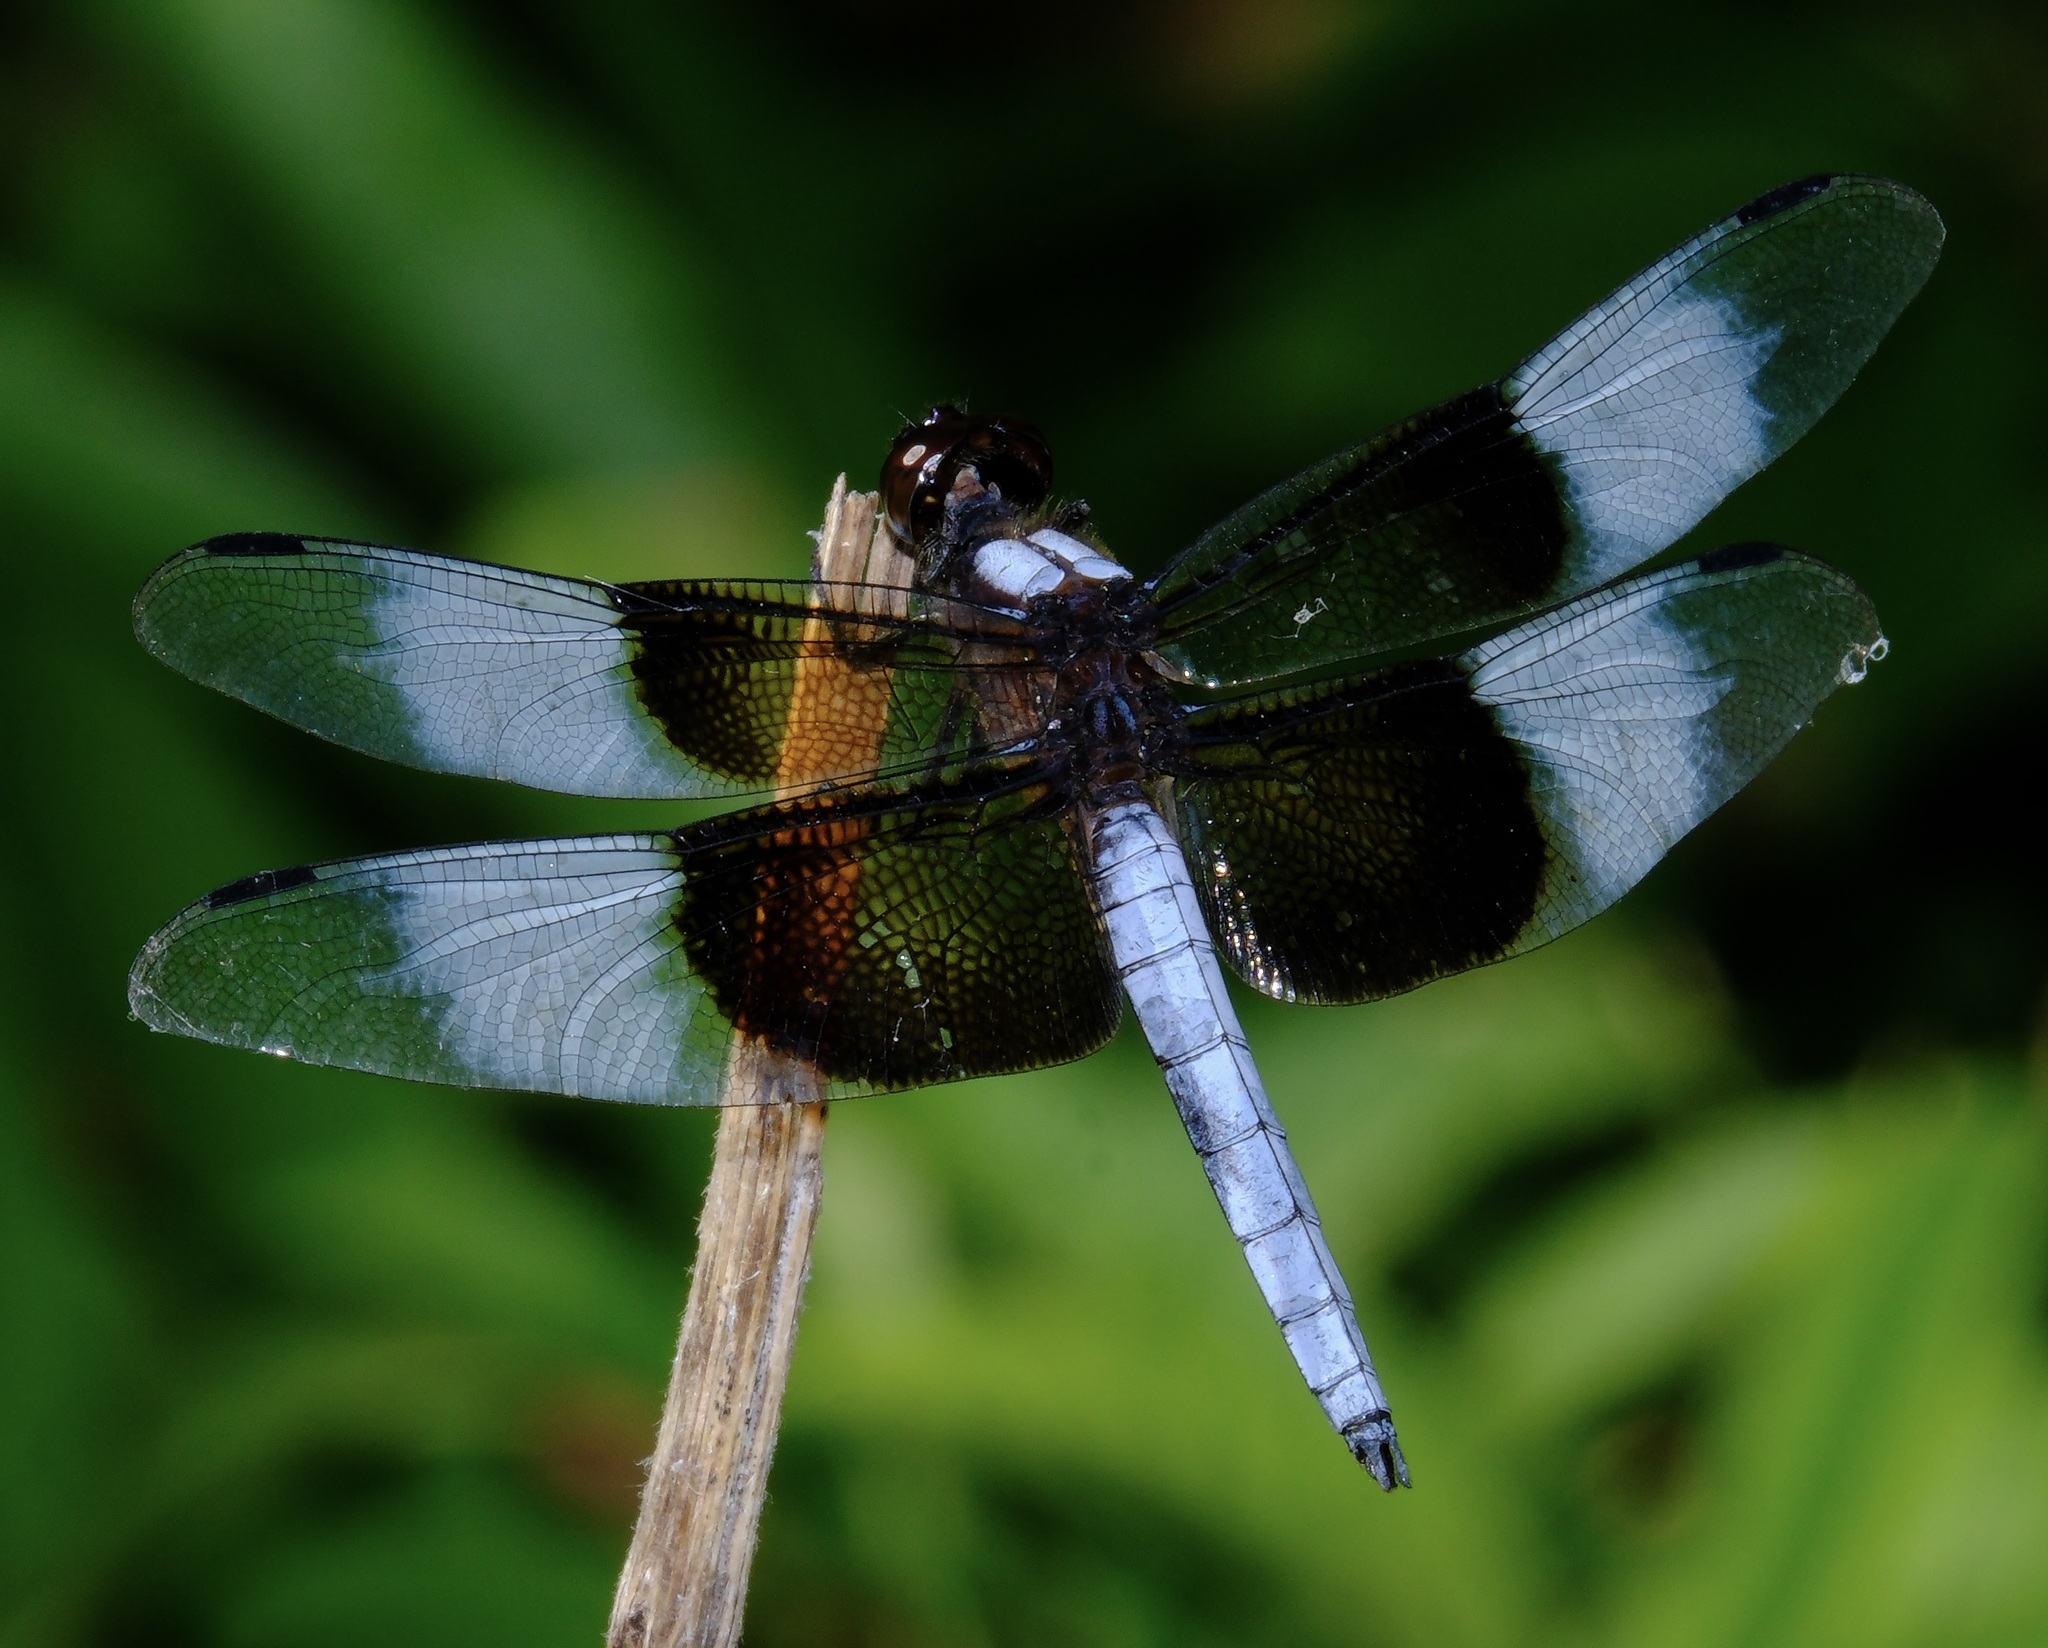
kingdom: Animalia
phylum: Arthropoda
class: Insecta
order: Odonata
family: Libellulidae
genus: Libellula
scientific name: Libellula luctuosa
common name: Widow skimmer
